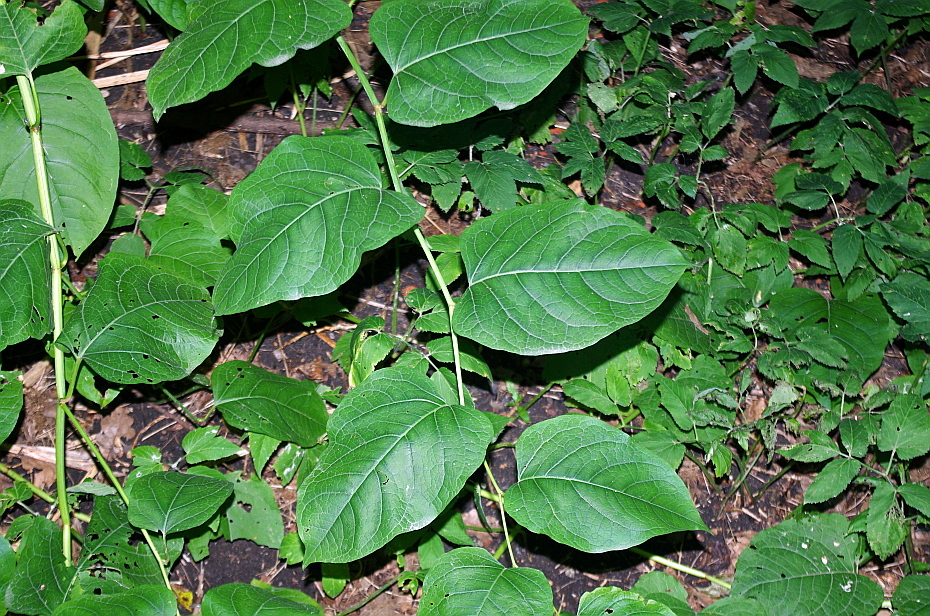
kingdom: Plantae
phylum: Tracheophyta
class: Magnoliopsida
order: Caryophyllales
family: Polygonaceae
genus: Reynoutria
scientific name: Reynoutria bohemica
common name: Bohemian knotweed
